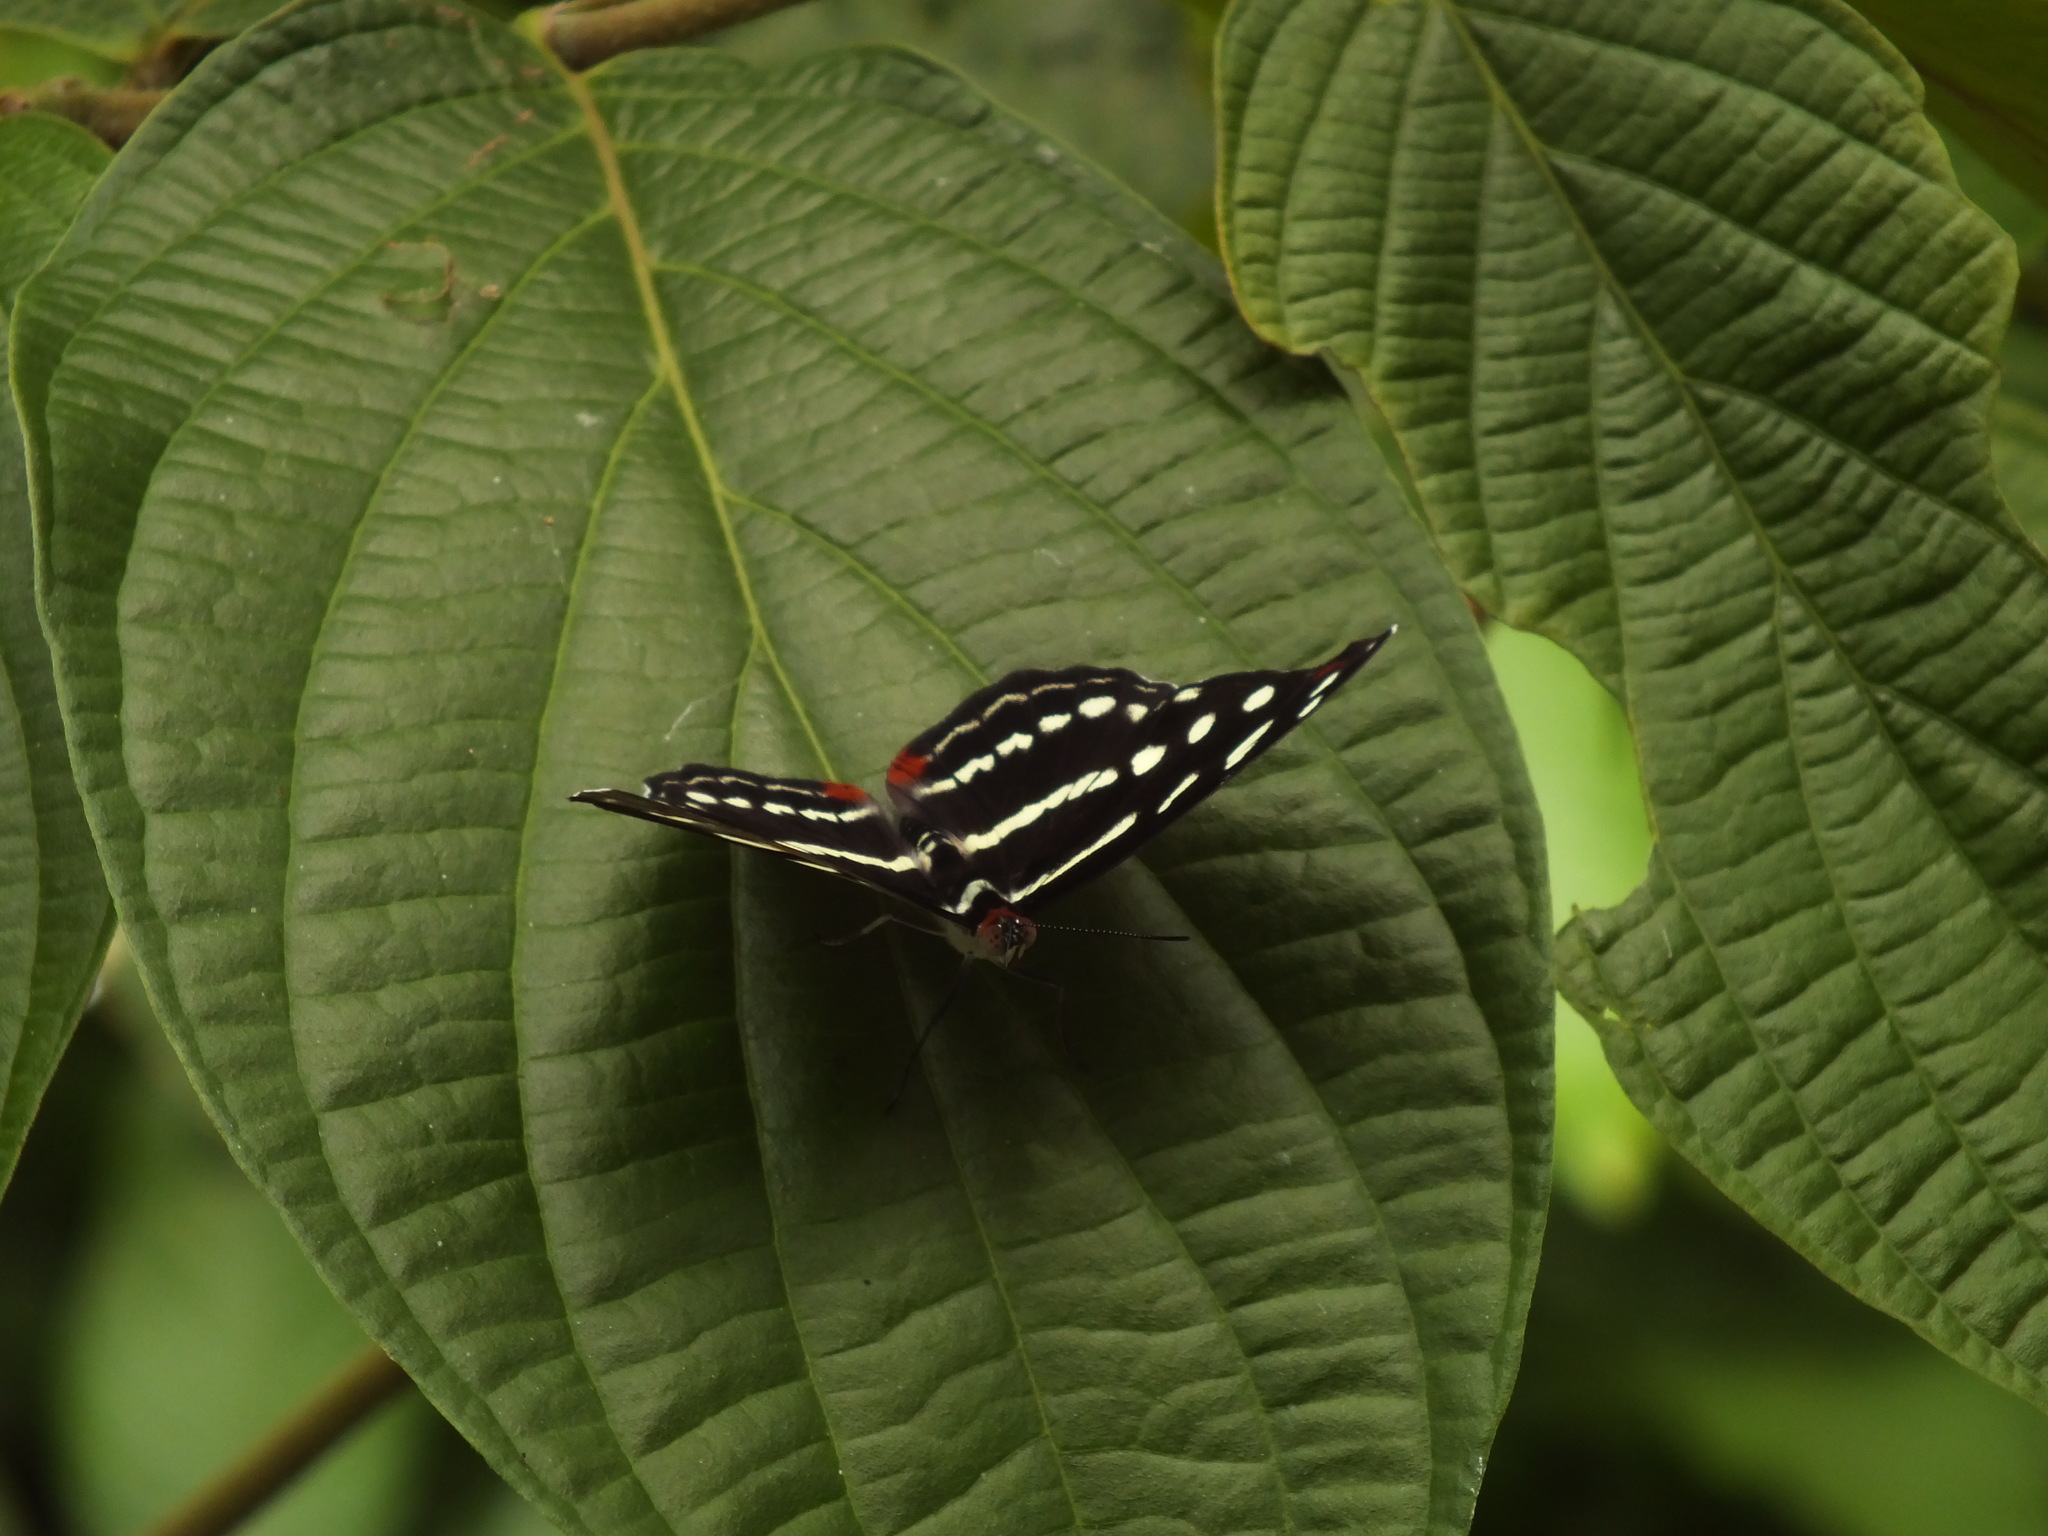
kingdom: Animalia
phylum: Arthropoda
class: Insecta
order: Lepidoptera
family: Nymphalidae
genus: Catonephele
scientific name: Catonephele mexicana
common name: Guatemalan catone
